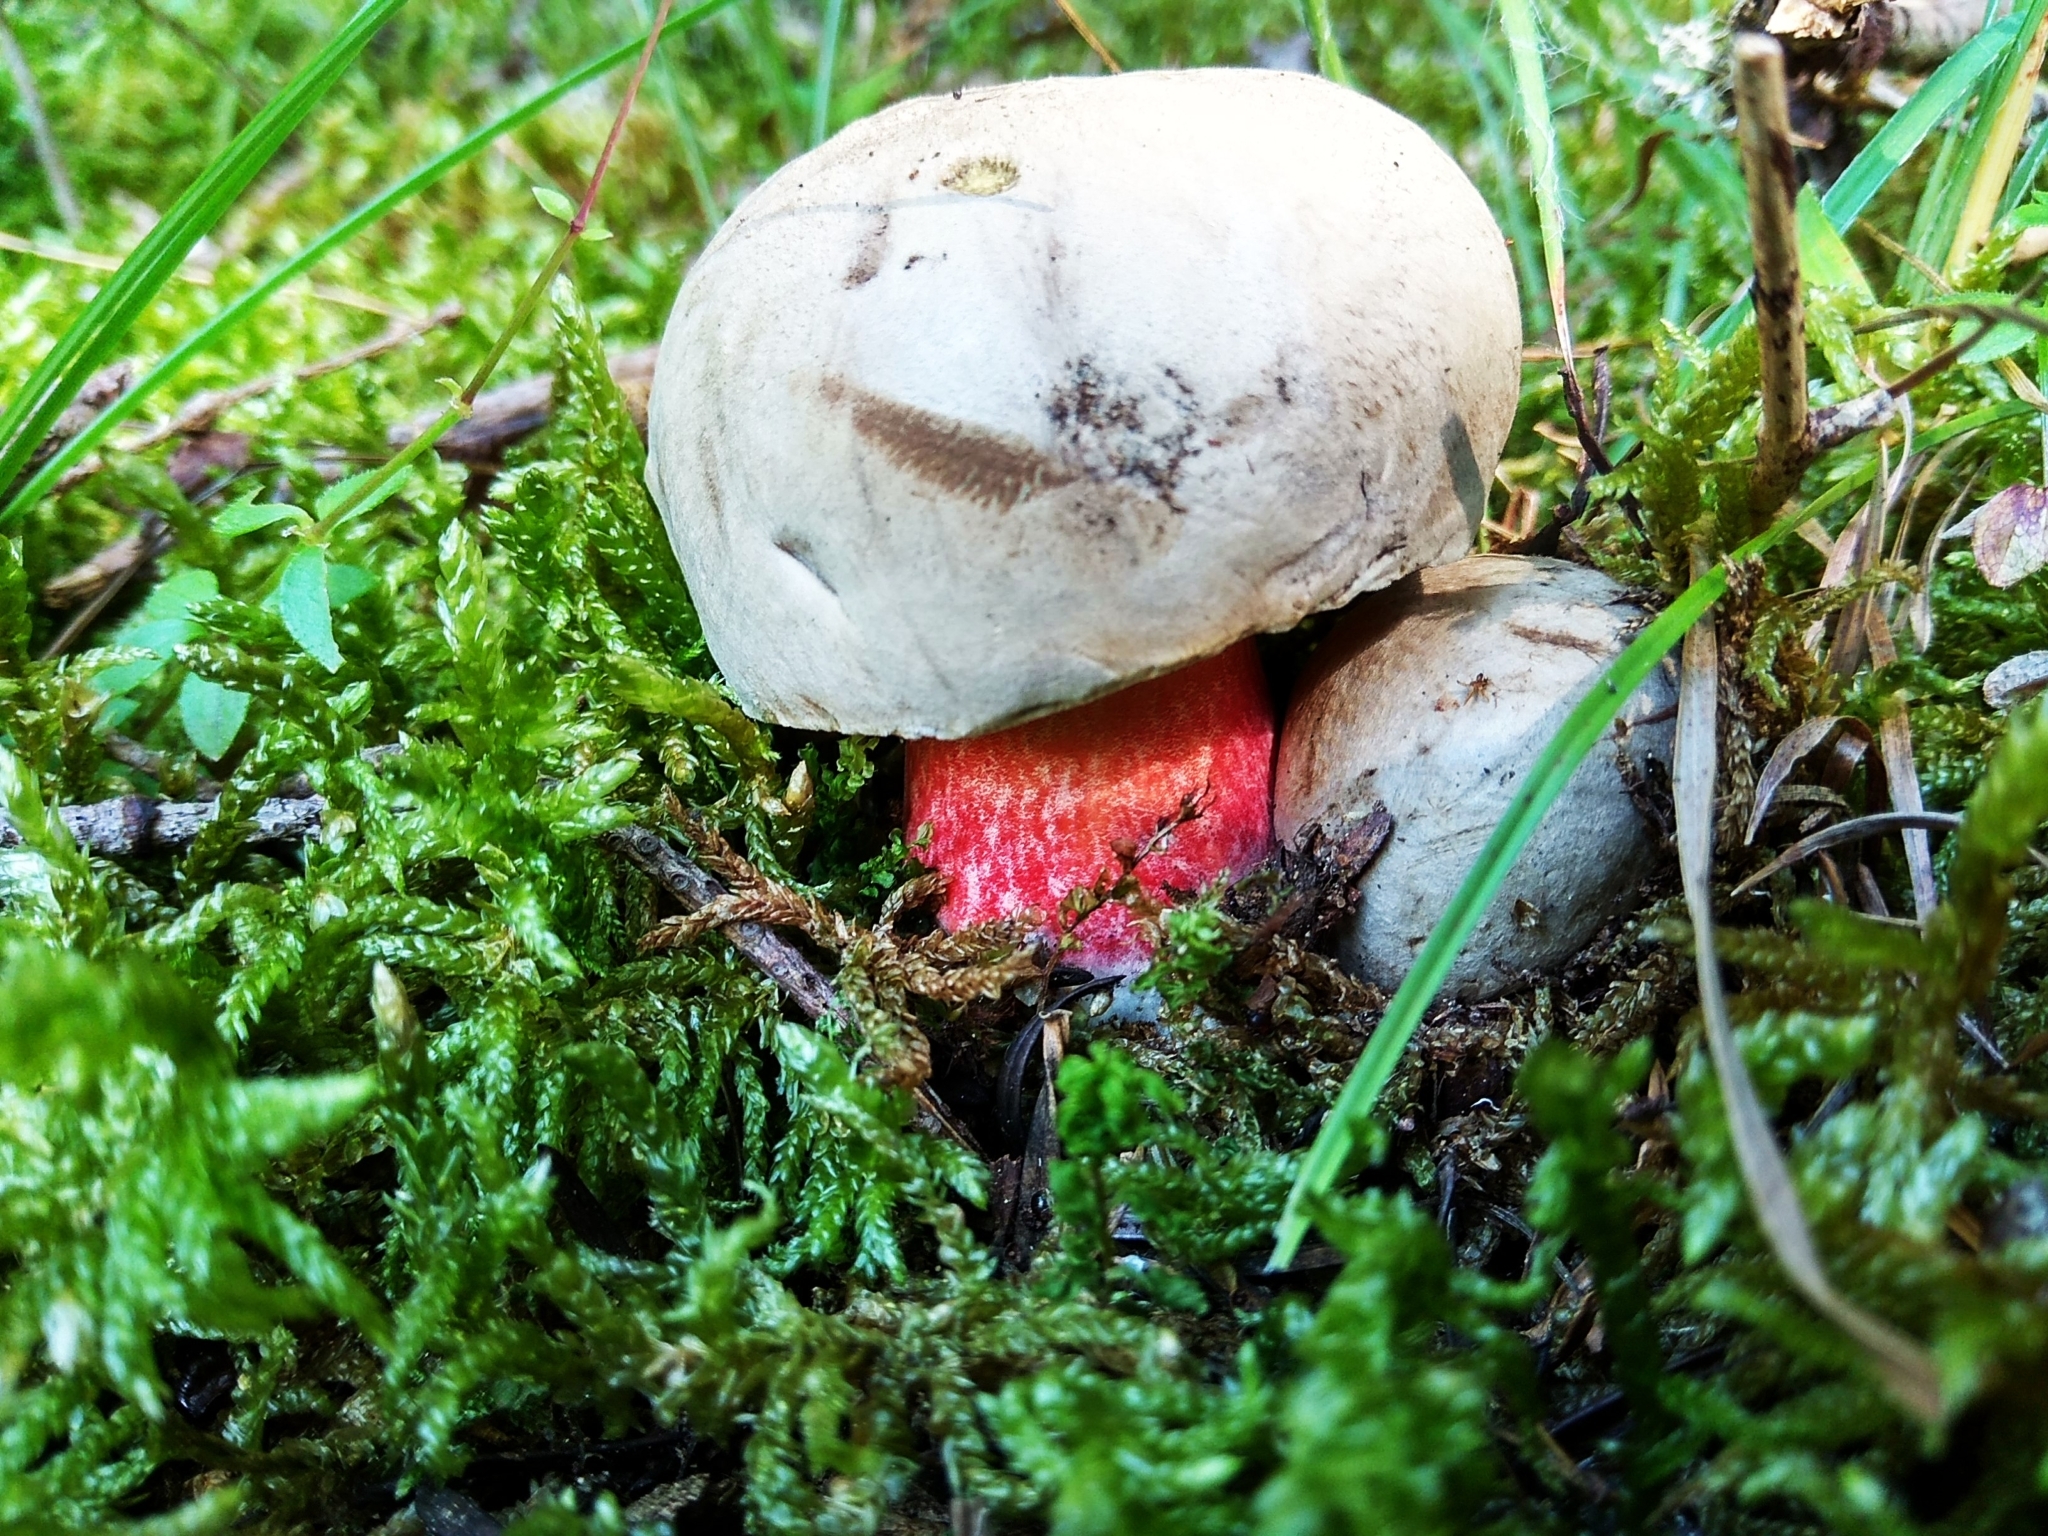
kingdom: Fungi
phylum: Basidiomycota
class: Agaricomycetes
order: Boletales
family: Boletaceae
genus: Caloboletus
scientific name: Caloboletus calopus
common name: Bitter beech bolete
